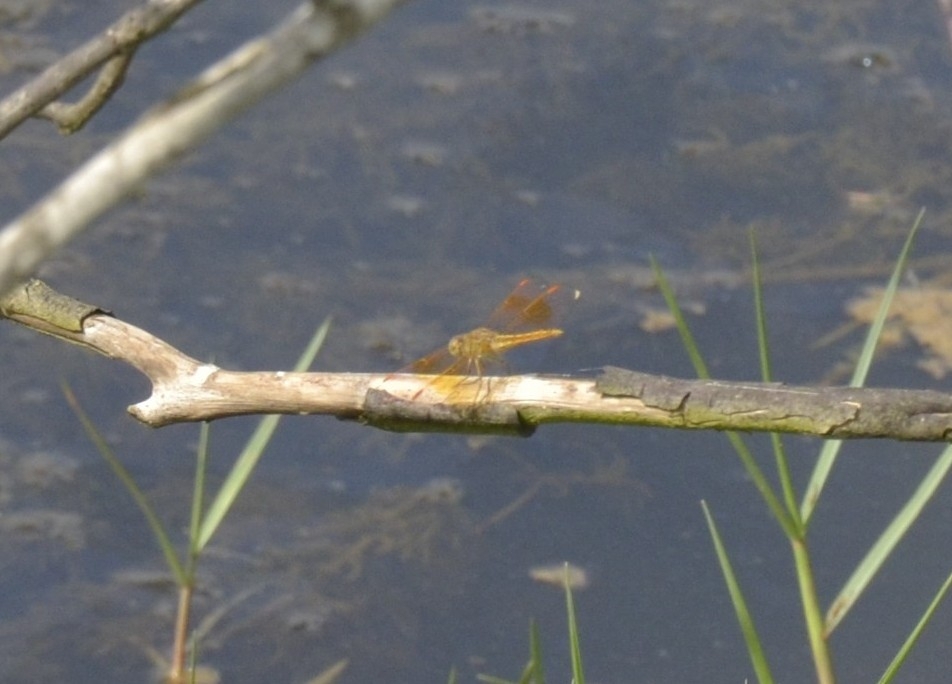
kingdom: Animalia
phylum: Arthropoda
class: Insecta
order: Odonata
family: Libellulidae
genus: Brachythemis
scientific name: Brachythemis contaminata
